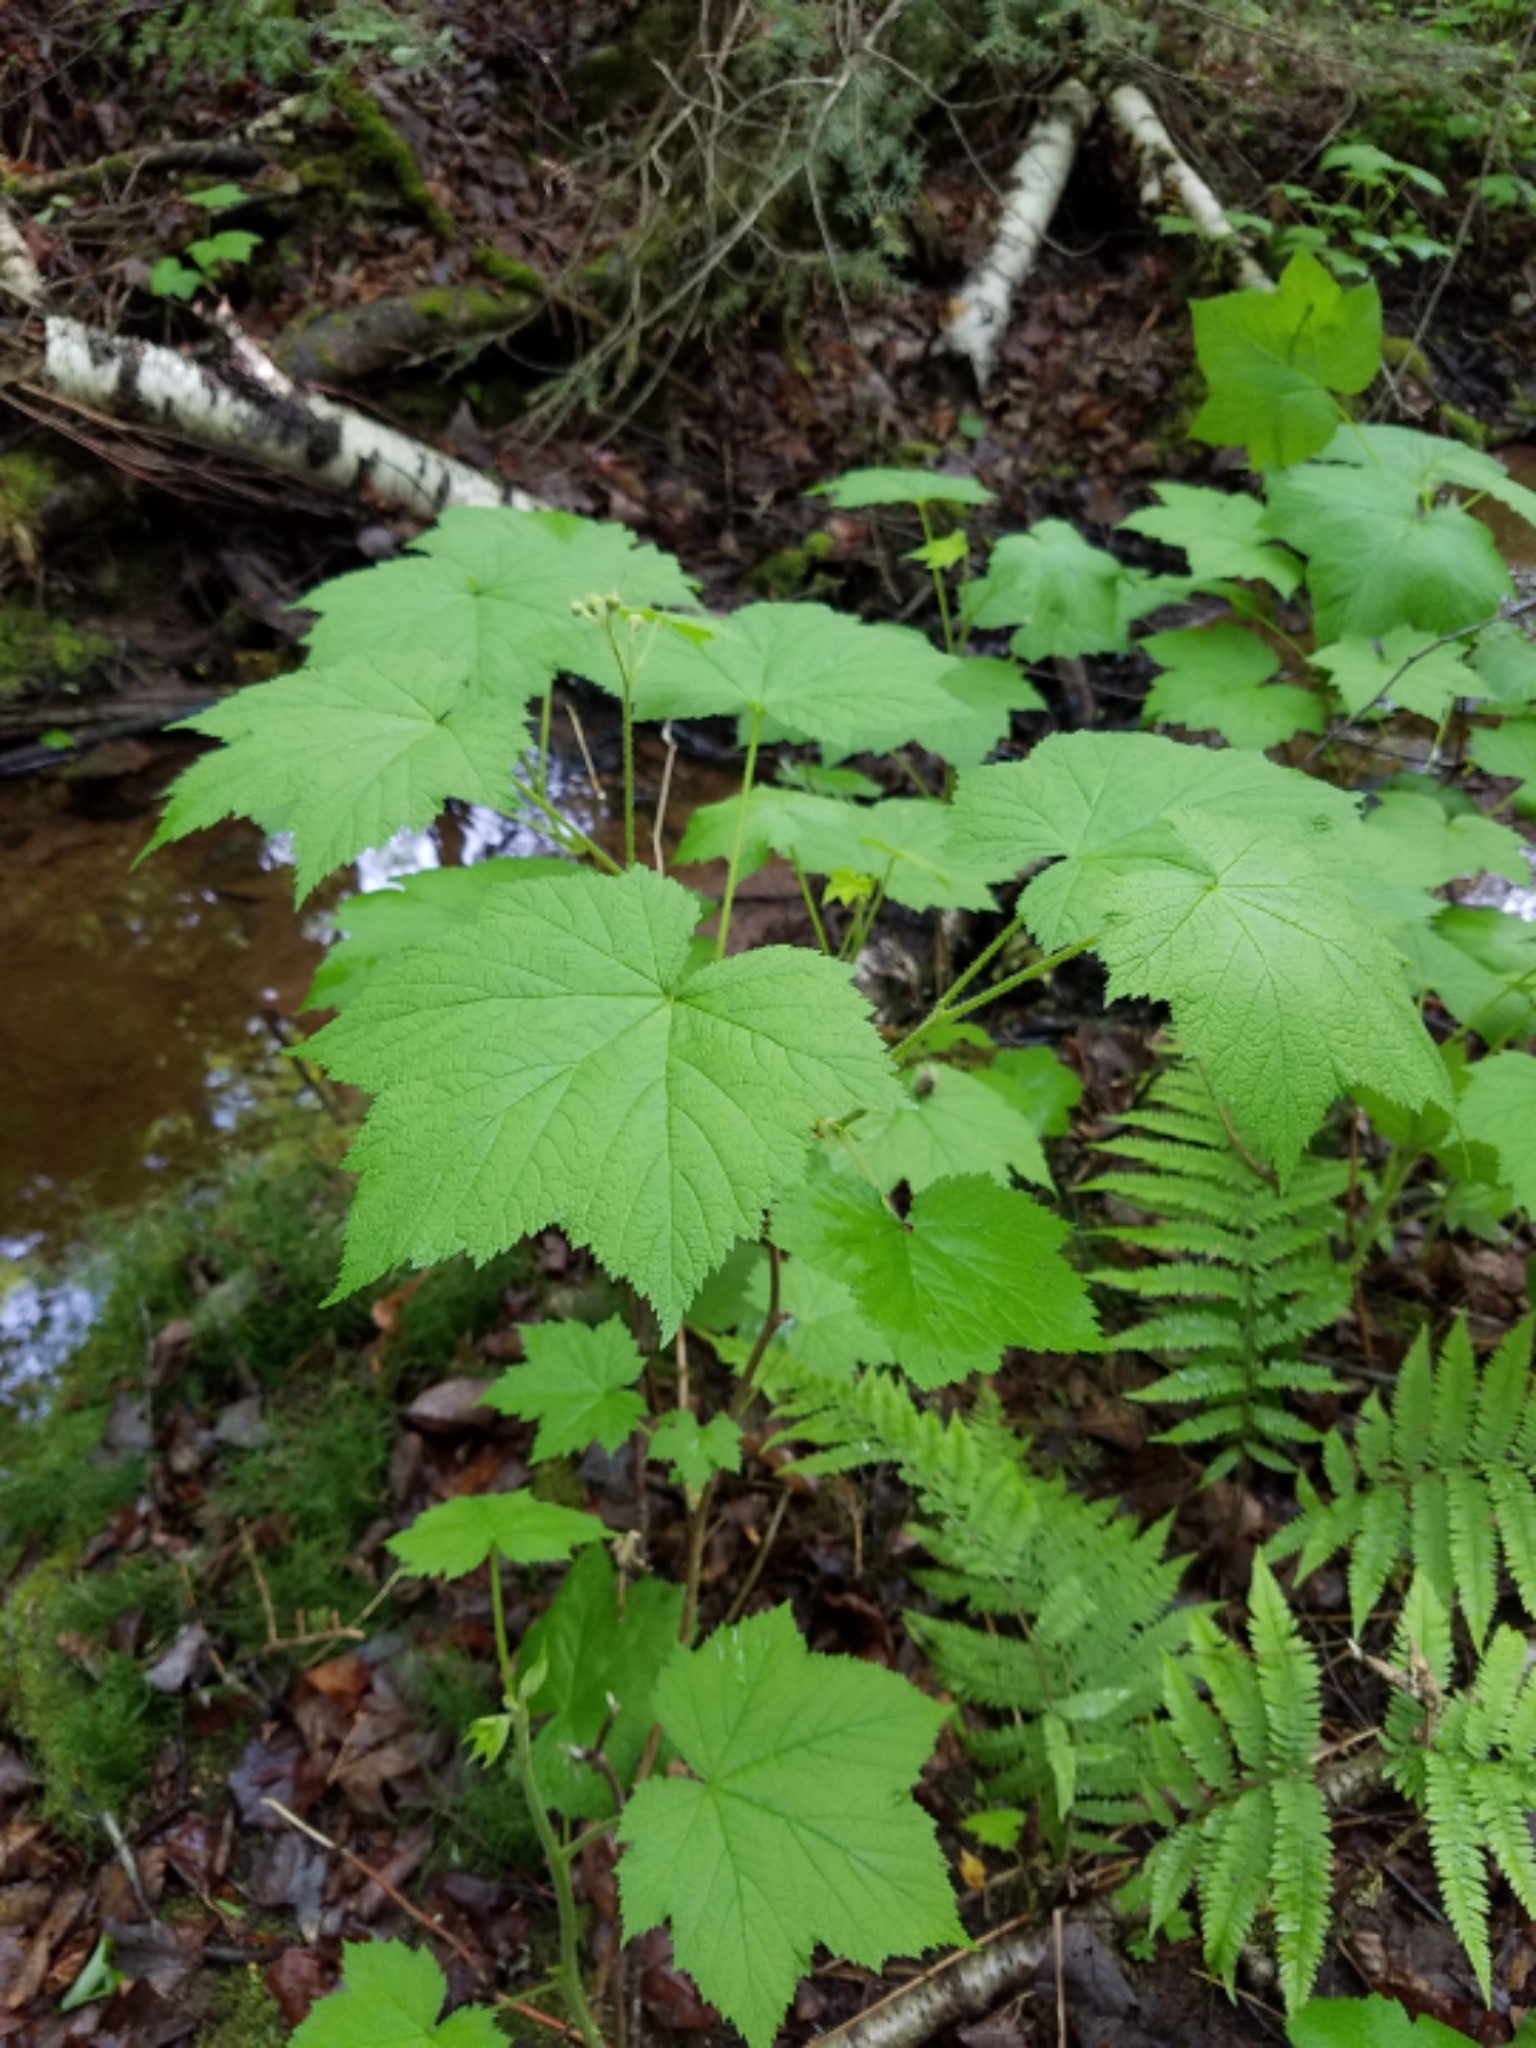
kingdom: Plantae
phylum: Tracheophyta
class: Magnoliopsida
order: Rosales
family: Rosaceae
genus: Rubus
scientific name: Rubus parviflorus
